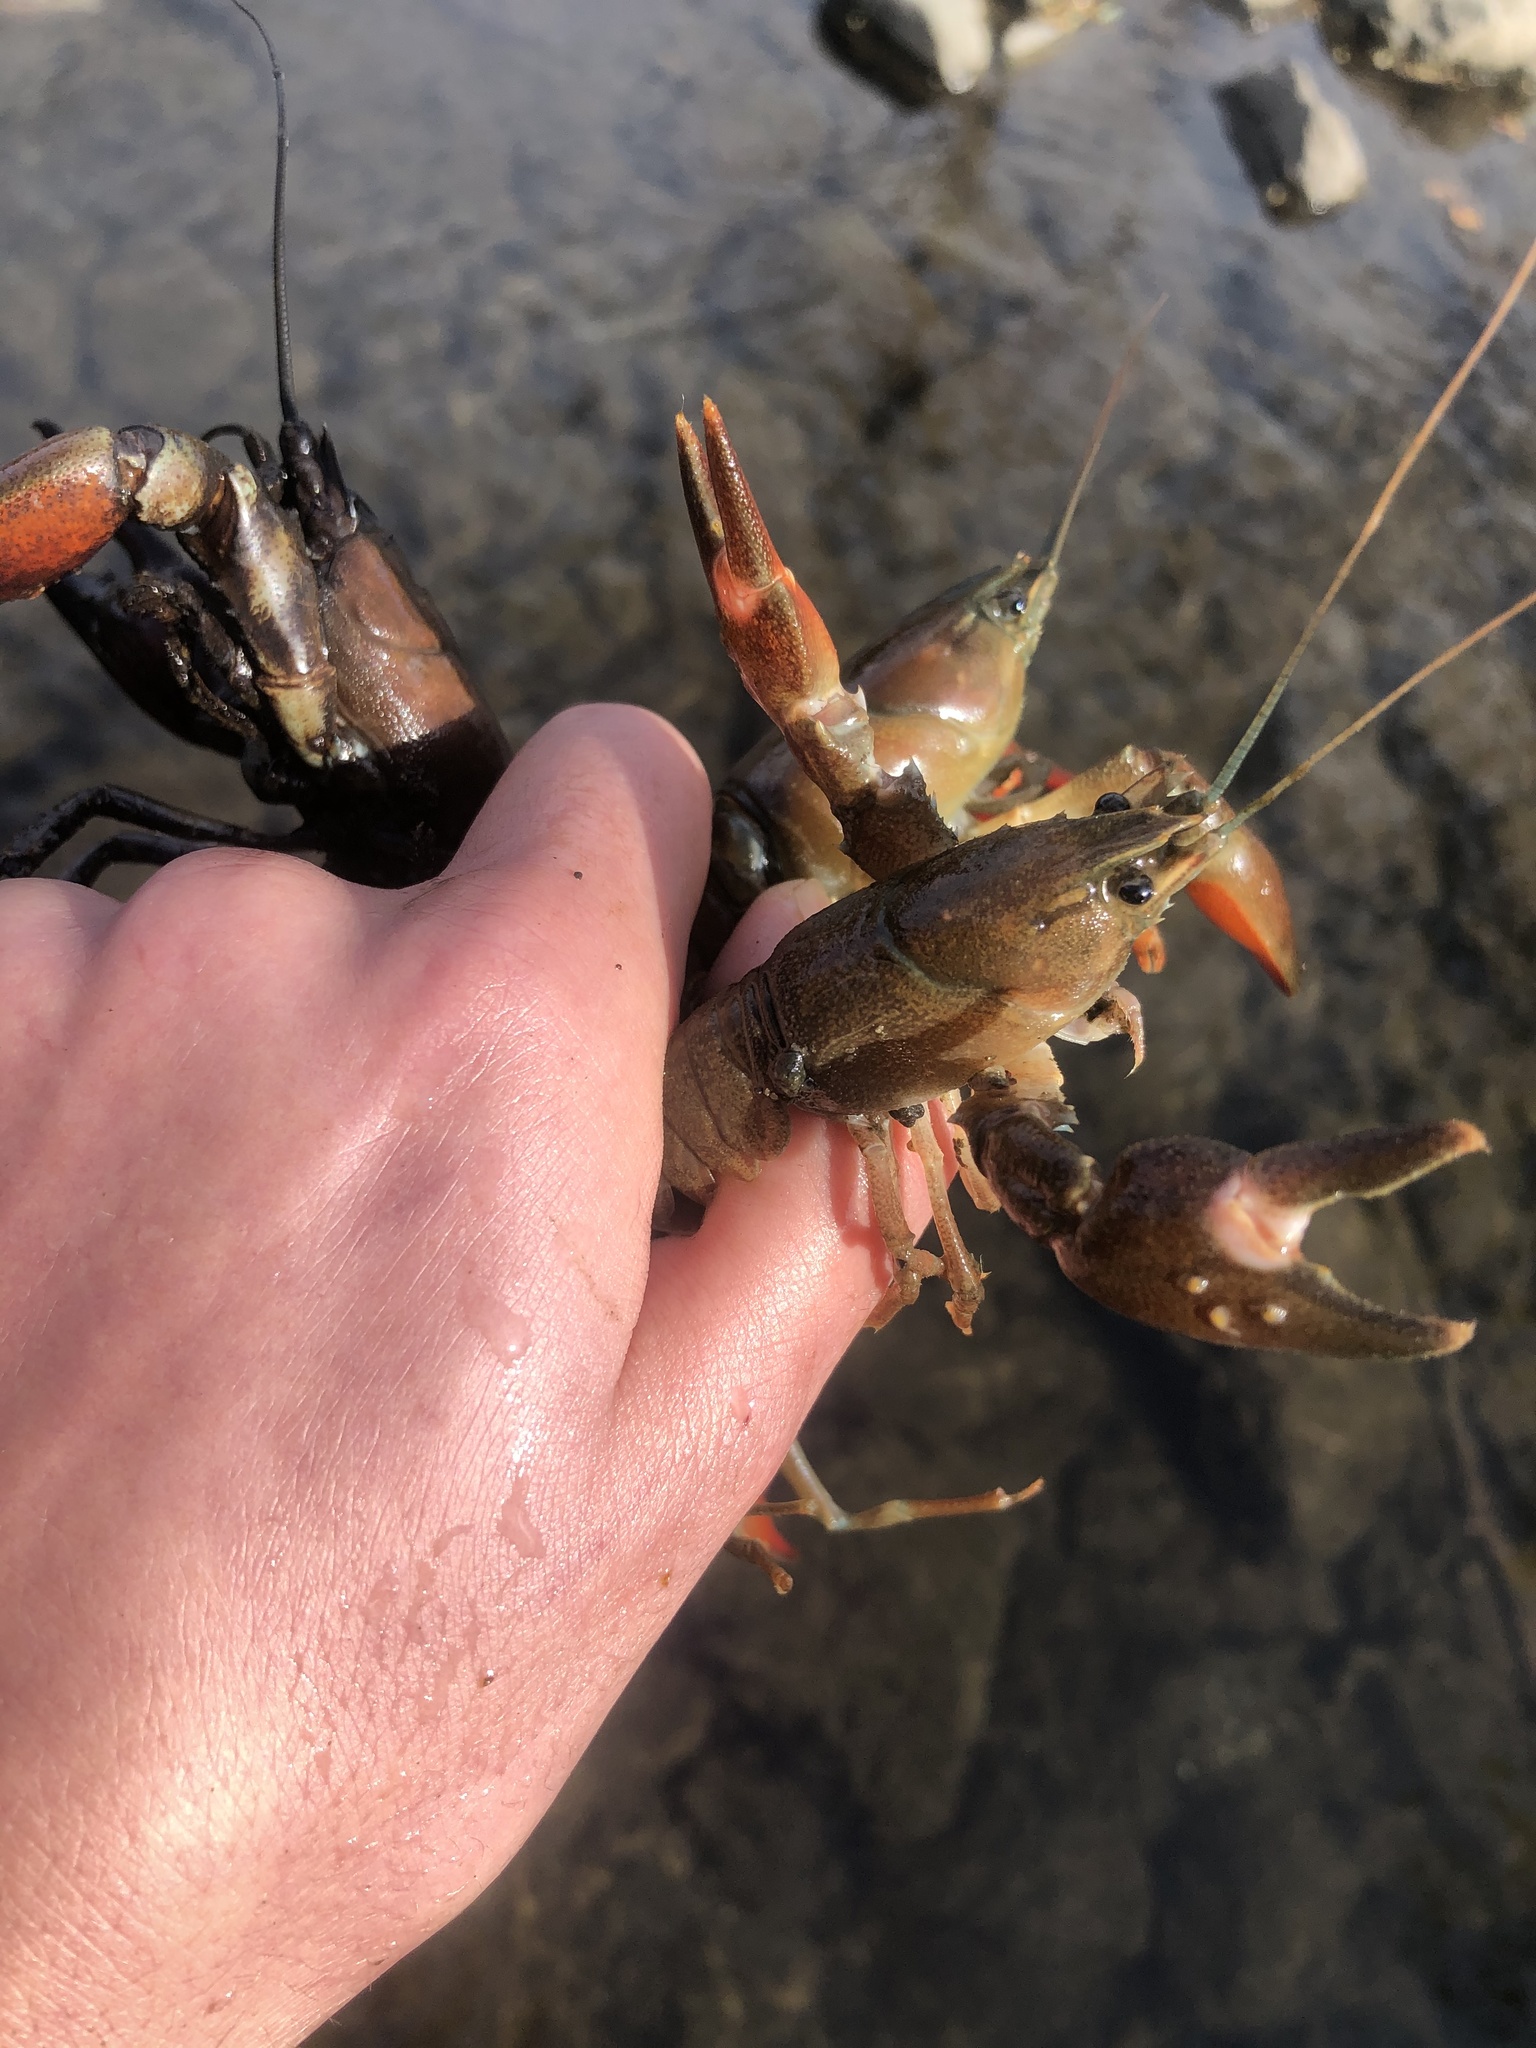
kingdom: Animalia
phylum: Arthropoda
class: Malacostraca
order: Decapoda
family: Astacidae
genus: Pacifastacus
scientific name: Pacifastacus leniusculus
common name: Signal crayfish
